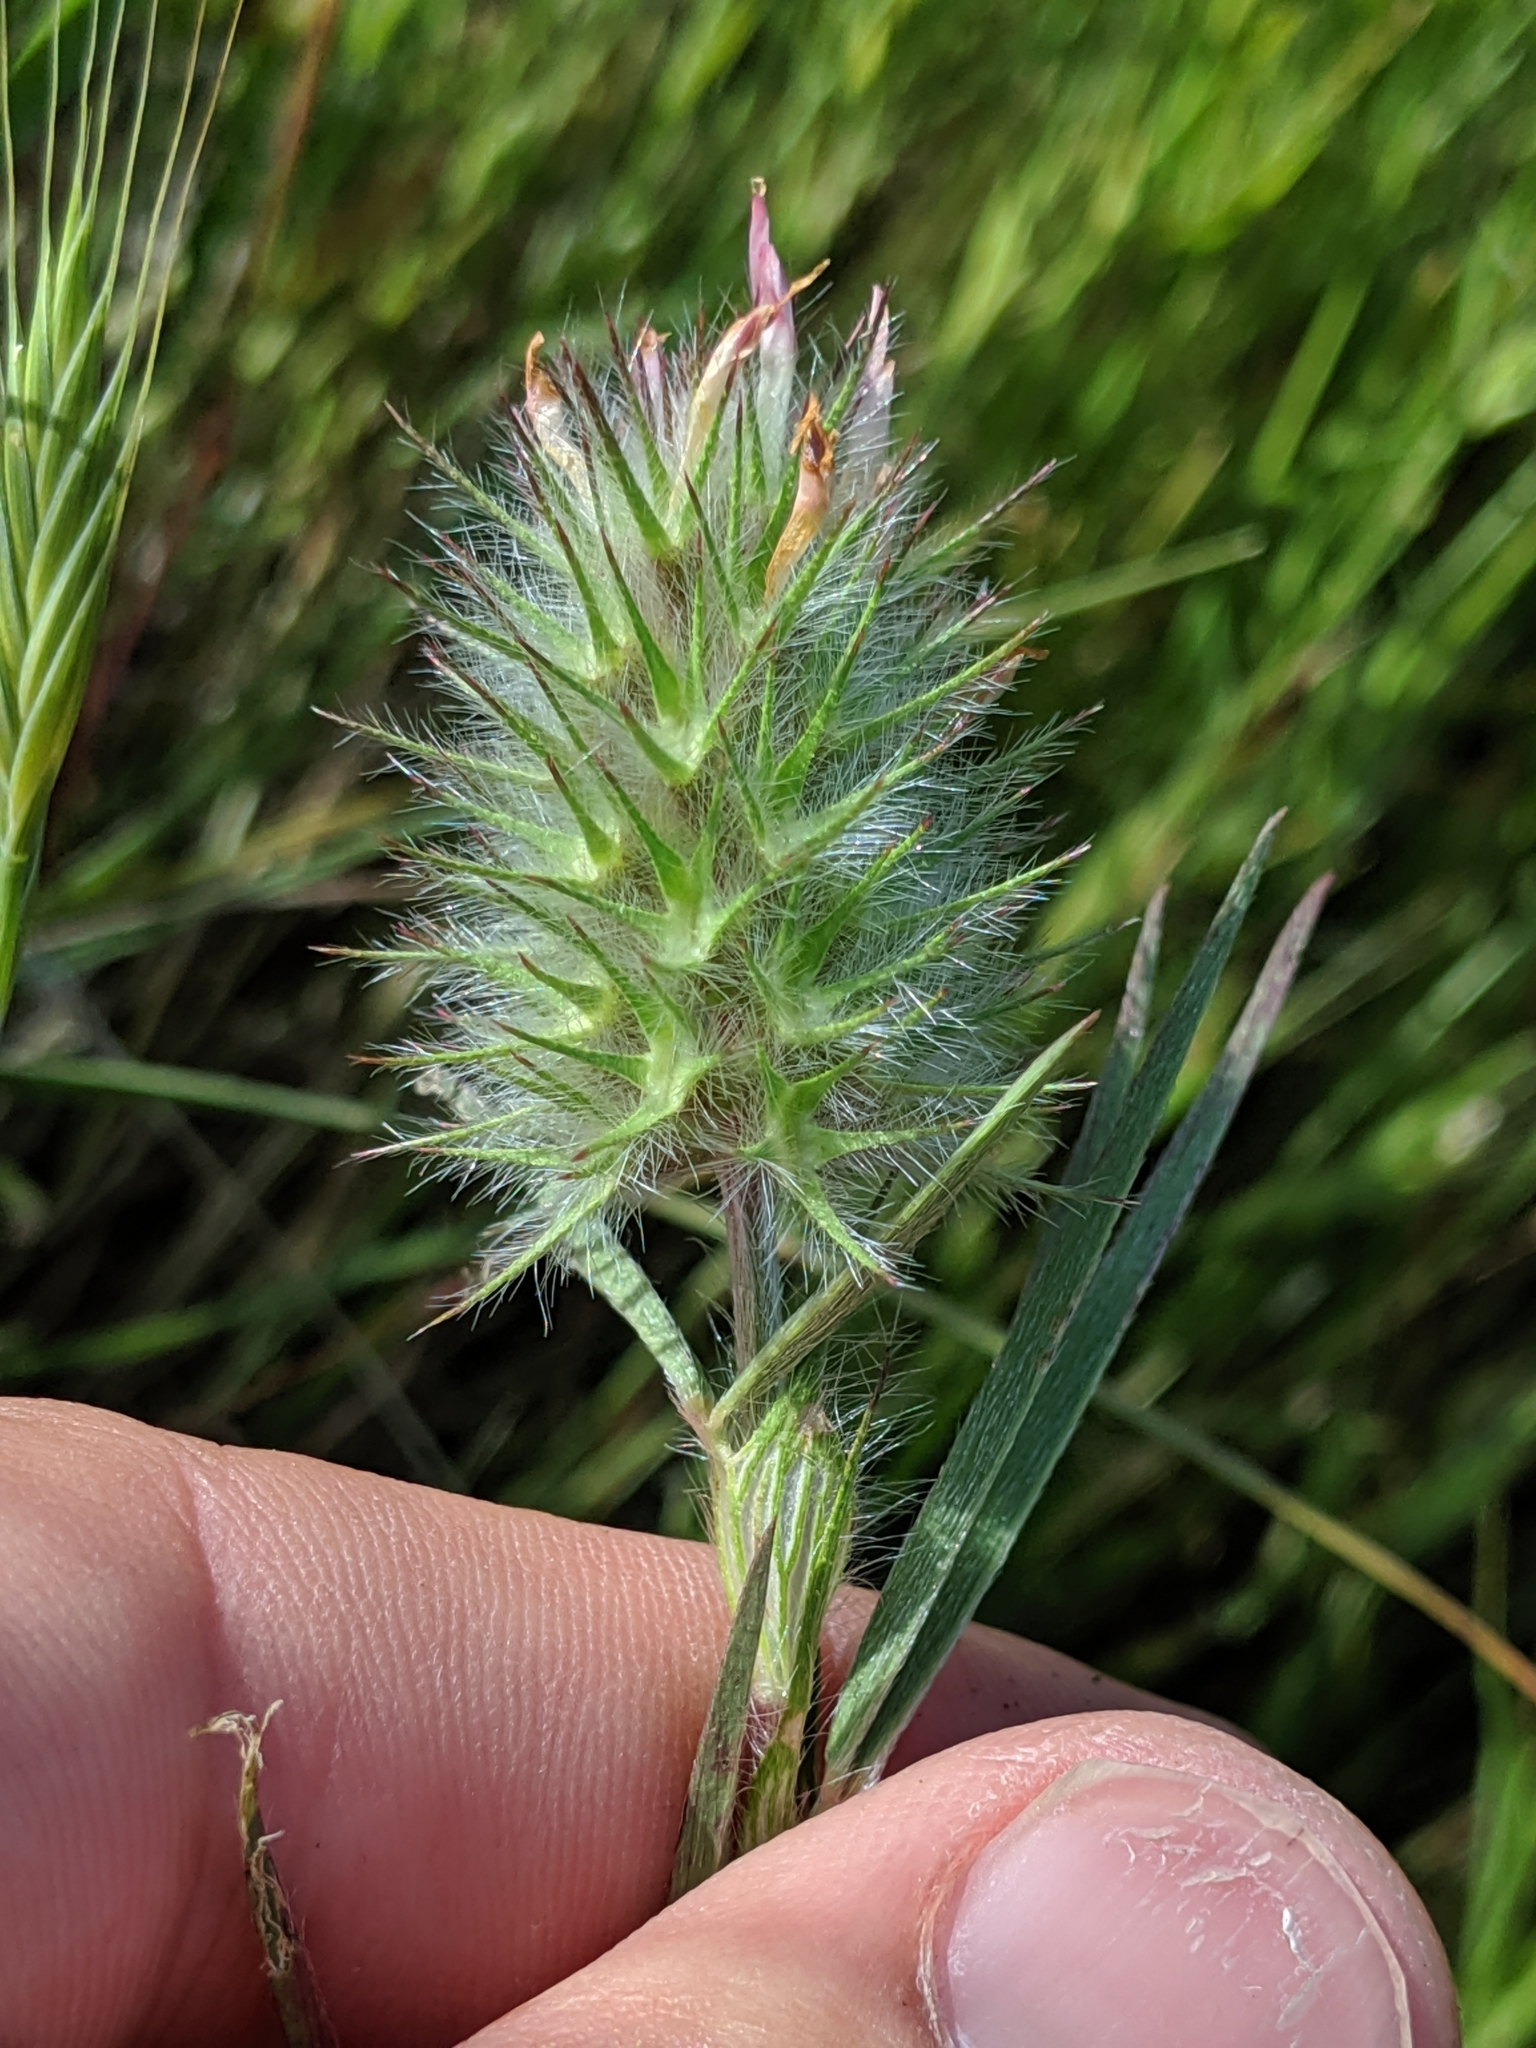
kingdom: Plantae
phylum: Tracheophyta
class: Magnoliopsida
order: Fabales
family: Fabaceae
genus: Trifolium
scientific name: Trifolium angustifolium
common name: Narrow clover
